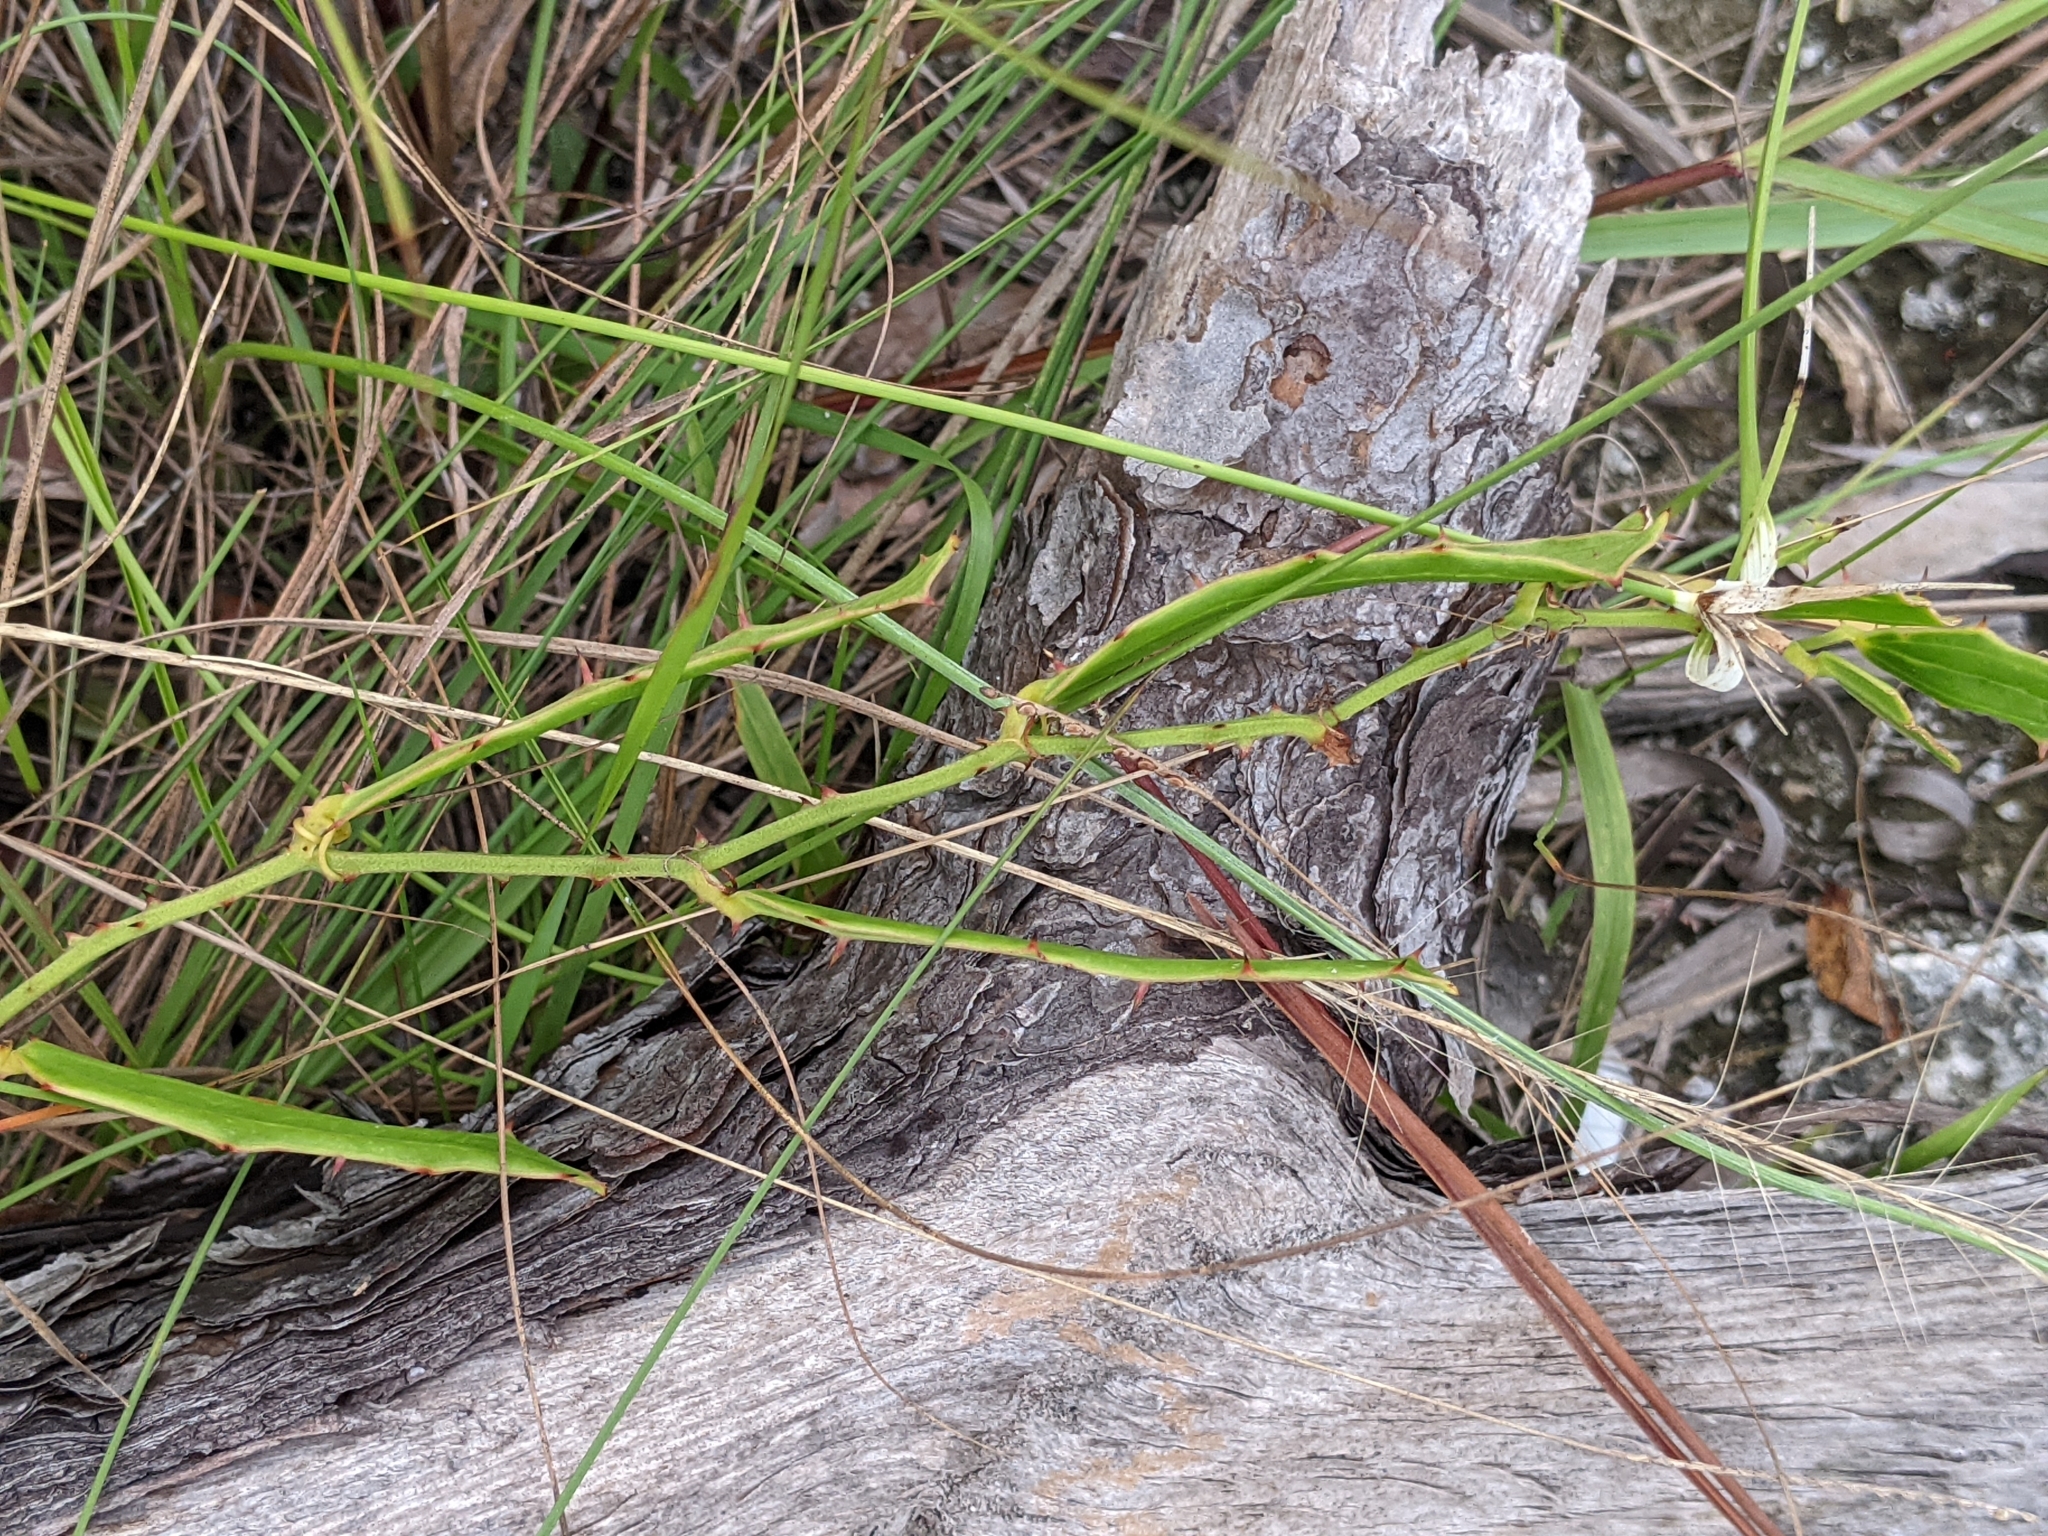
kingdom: Plantae
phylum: Tracheophyta
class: Liliopsida
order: Liliales
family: Smilacaceae
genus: Smilax
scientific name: Smilax havanensis
